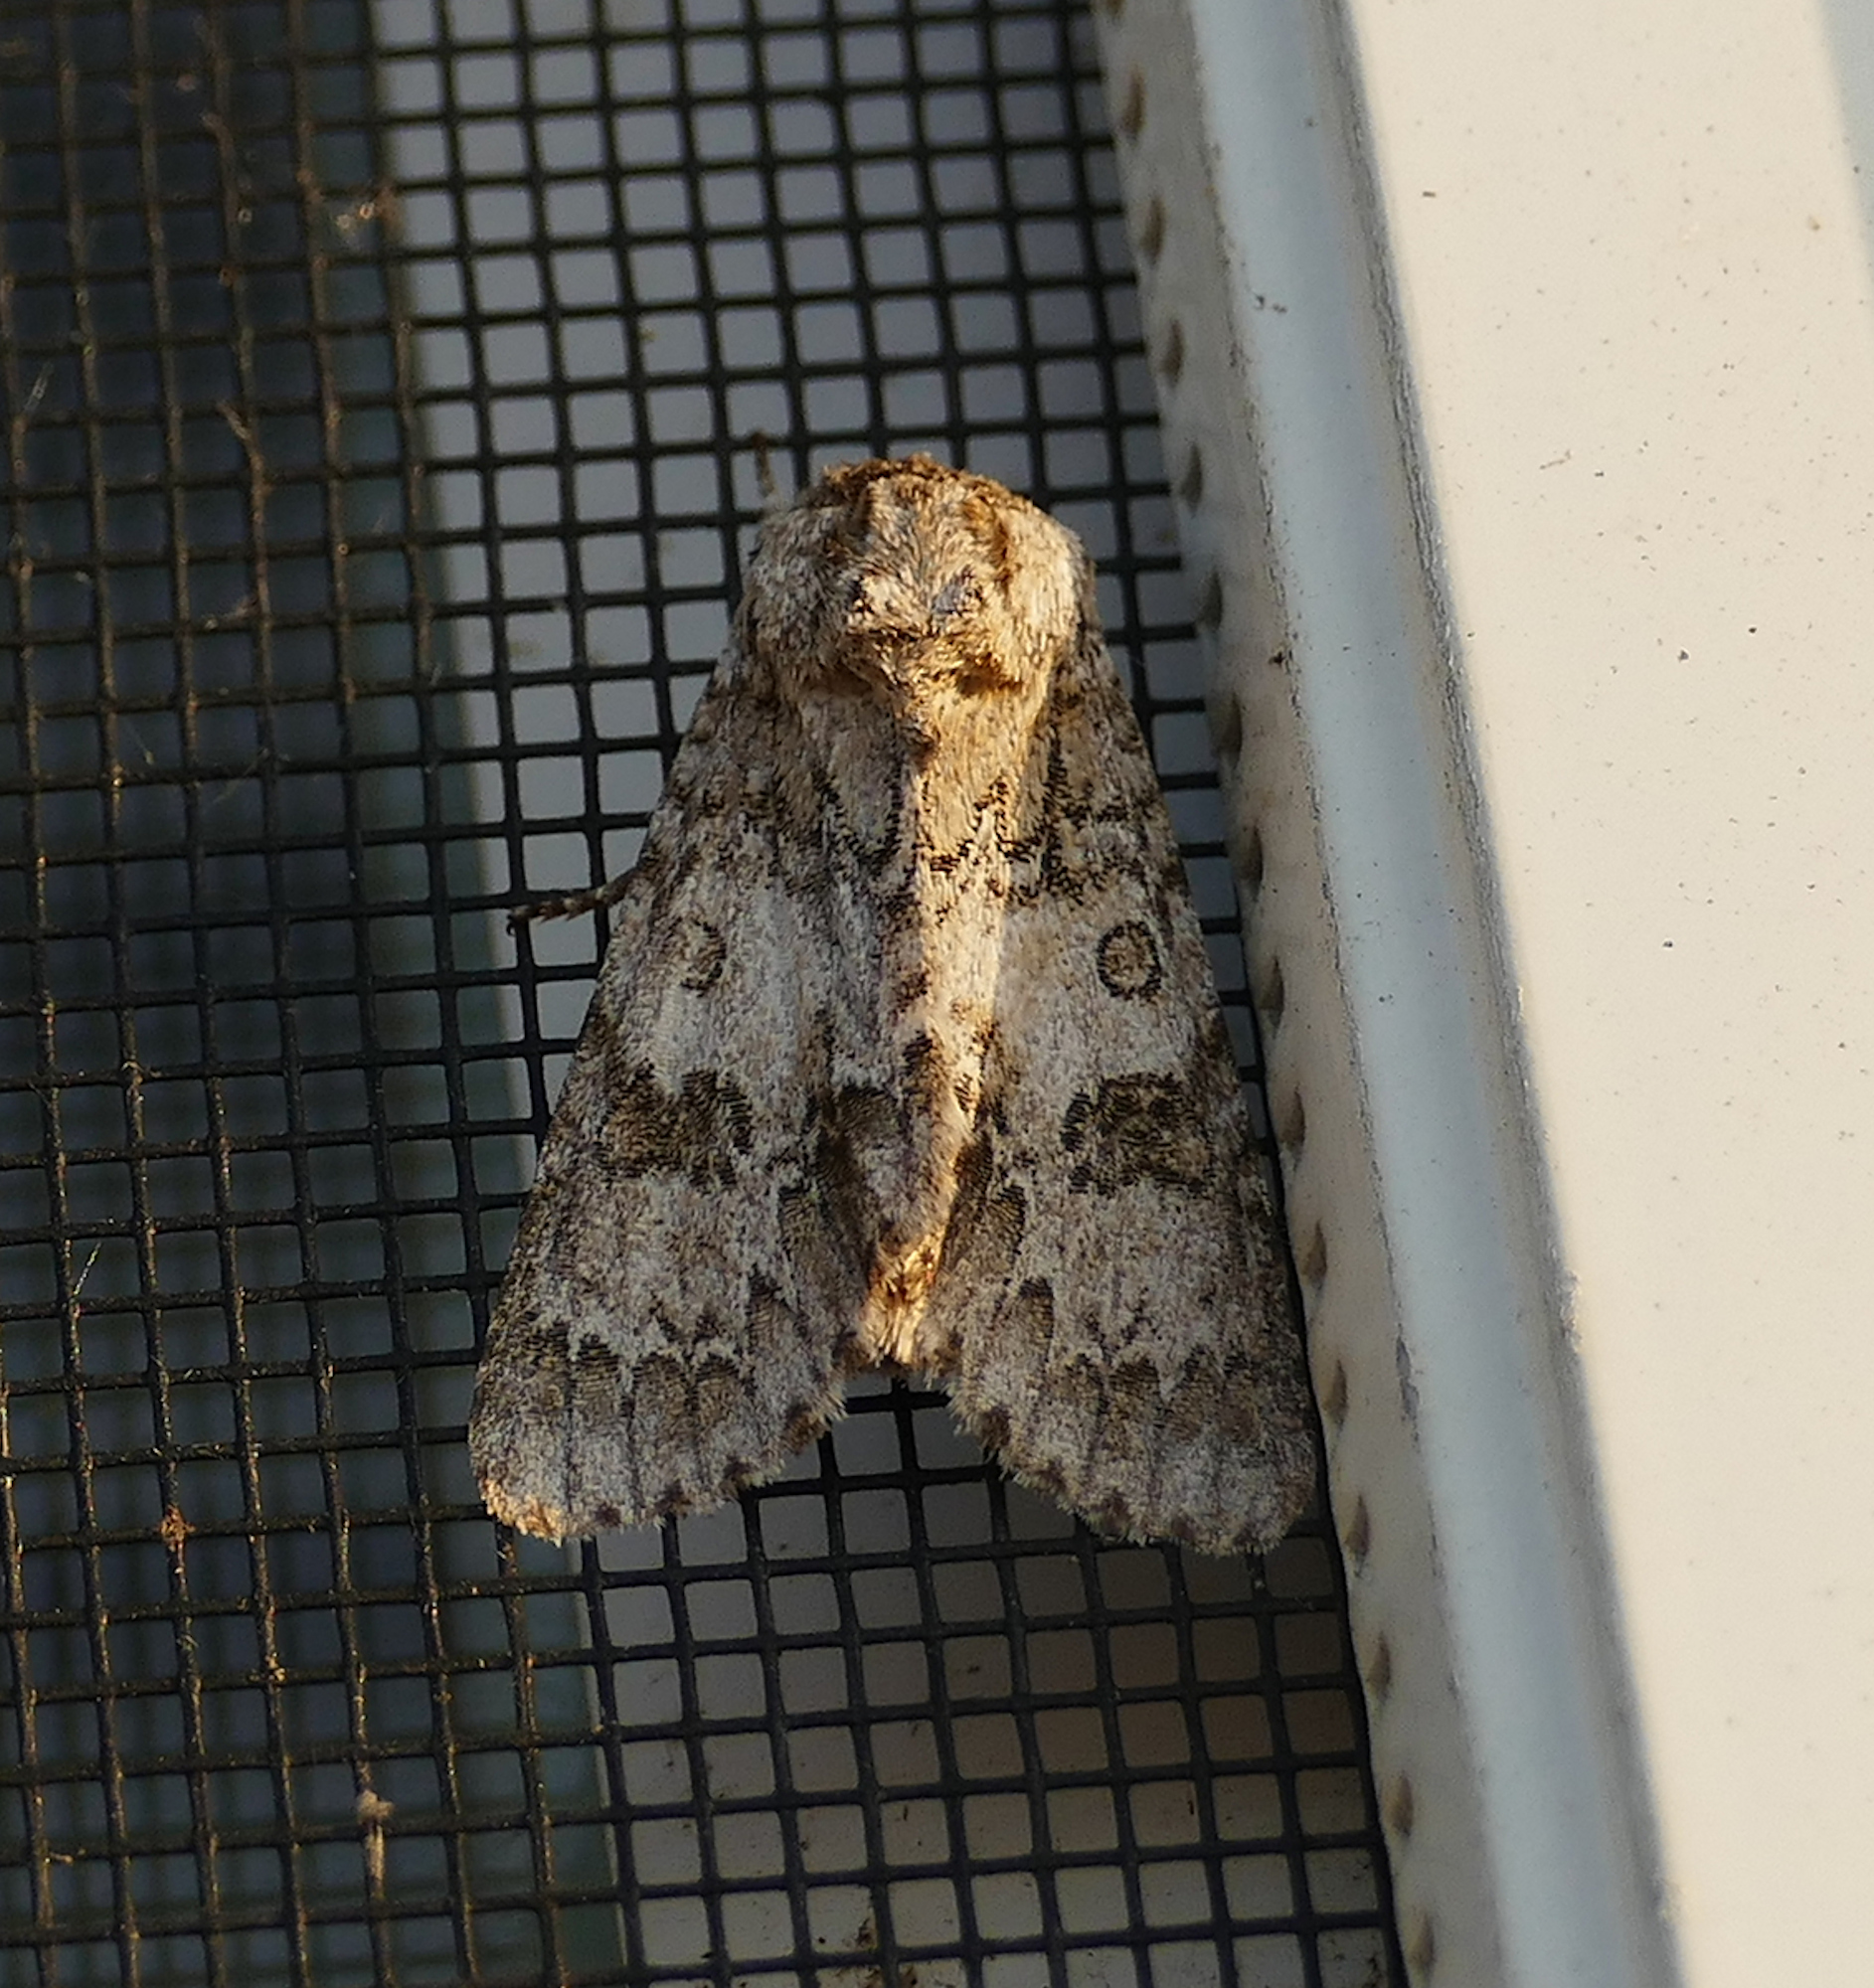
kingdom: Animalia
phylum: Arthropoda
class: Insecta
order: Lepidoptera
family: Noctuidae
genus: Acronicta
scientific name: Acronicta rubricoma
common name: Hackberry dagger
